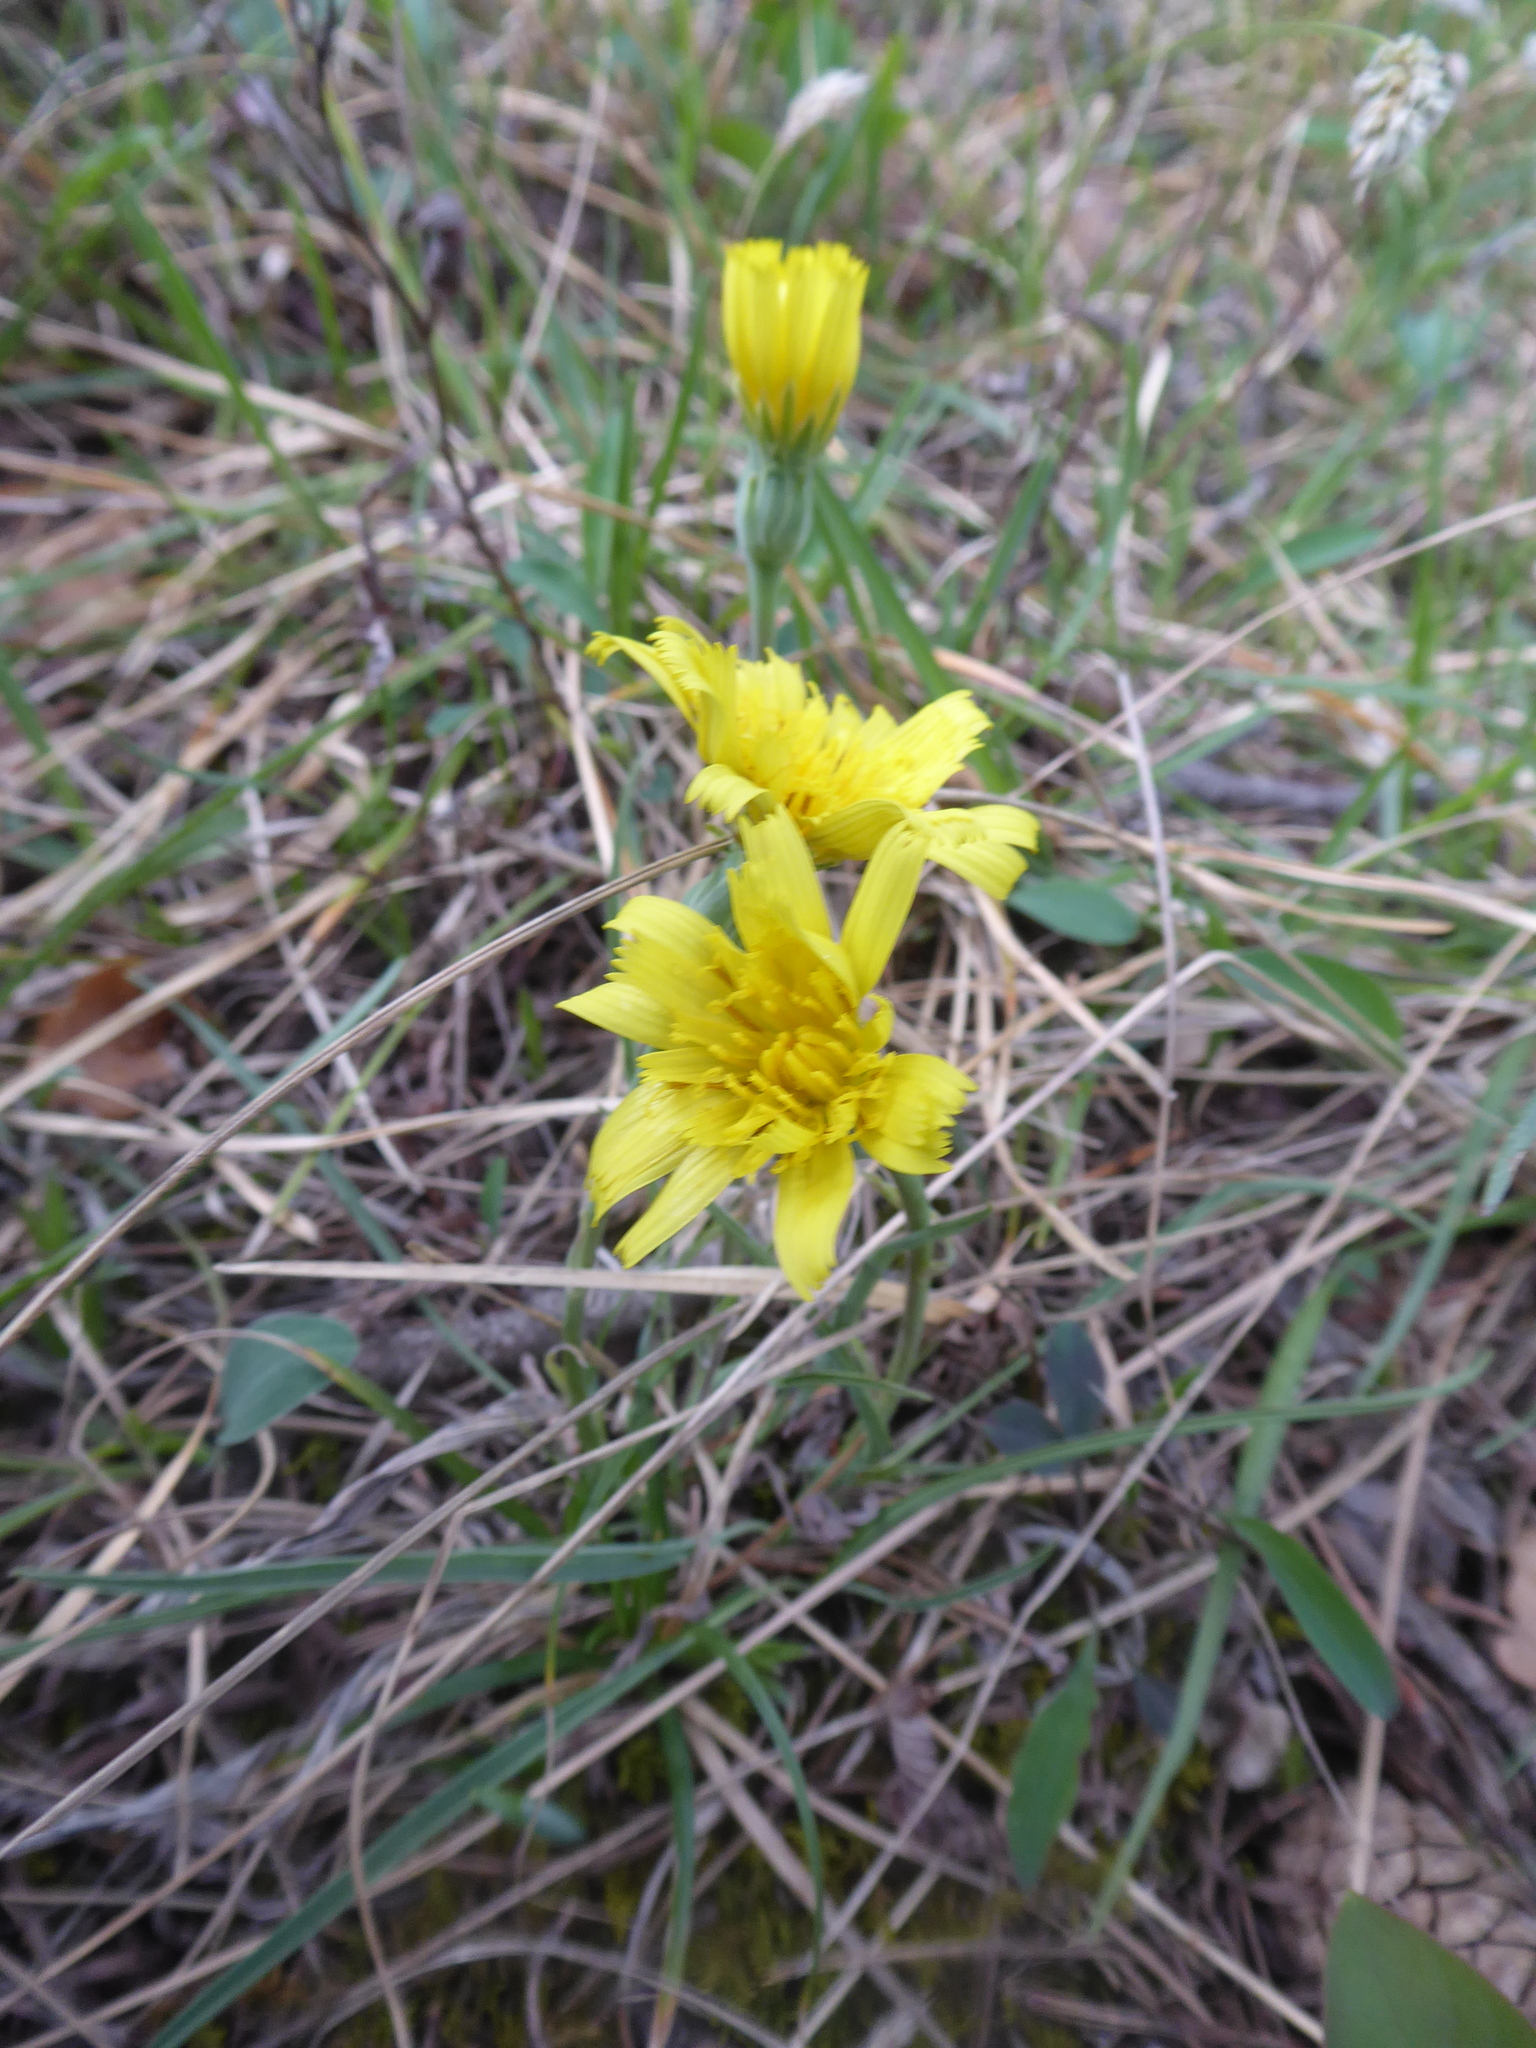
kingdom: Plantae
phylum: Tracheophyta
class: Magnoliopsida
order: Asterales
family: Asteraceae
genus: Takhtajaniantha
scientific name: Takhtajaniantha austriaca
